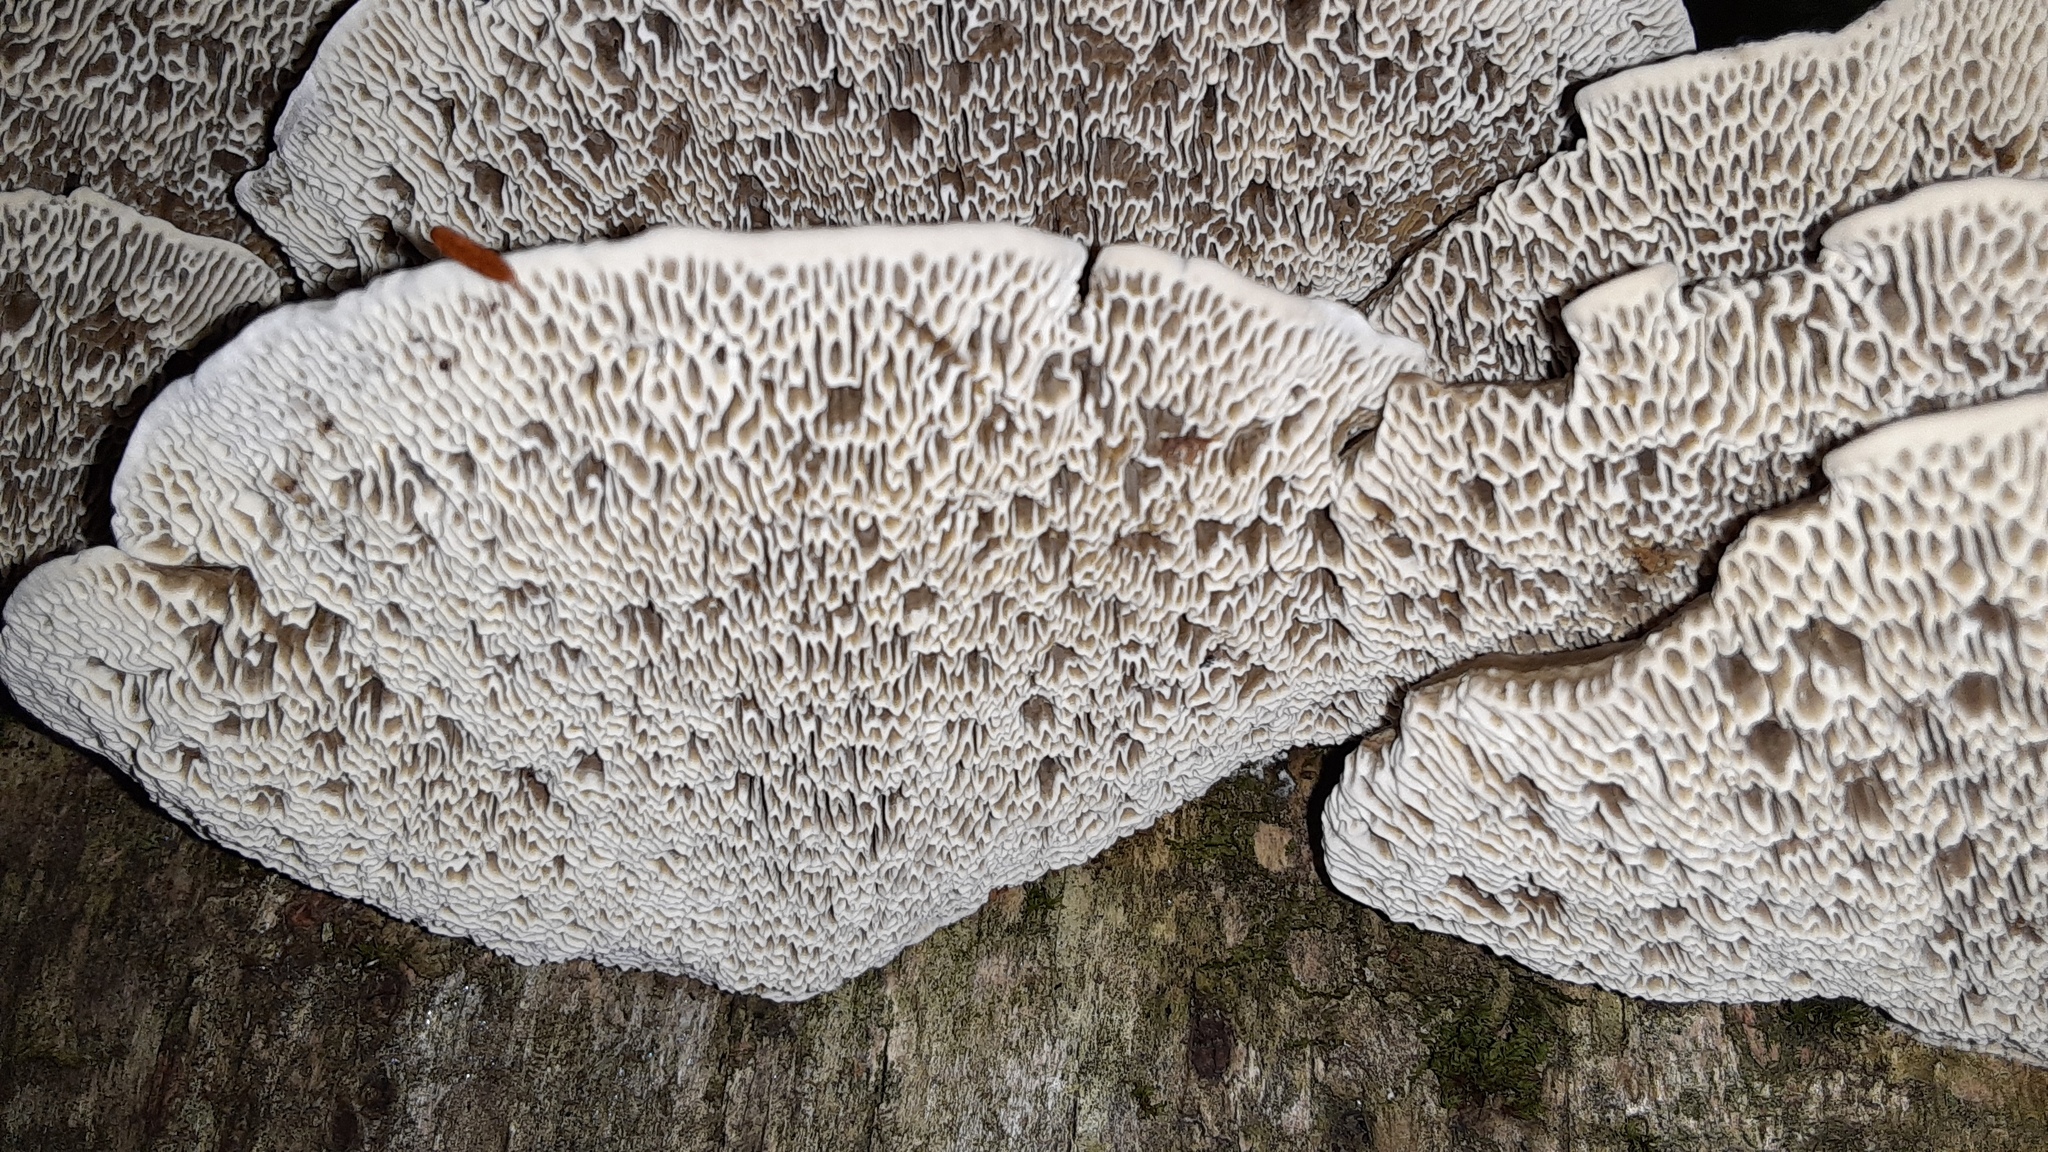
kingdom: Fungi
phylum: Basidiomycota
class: Agaricomycetes
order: Polyporales
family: Polyporaceae
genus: Daedaleopsis
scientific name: Daedaleopsis confragosa
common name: Blushing bracket
